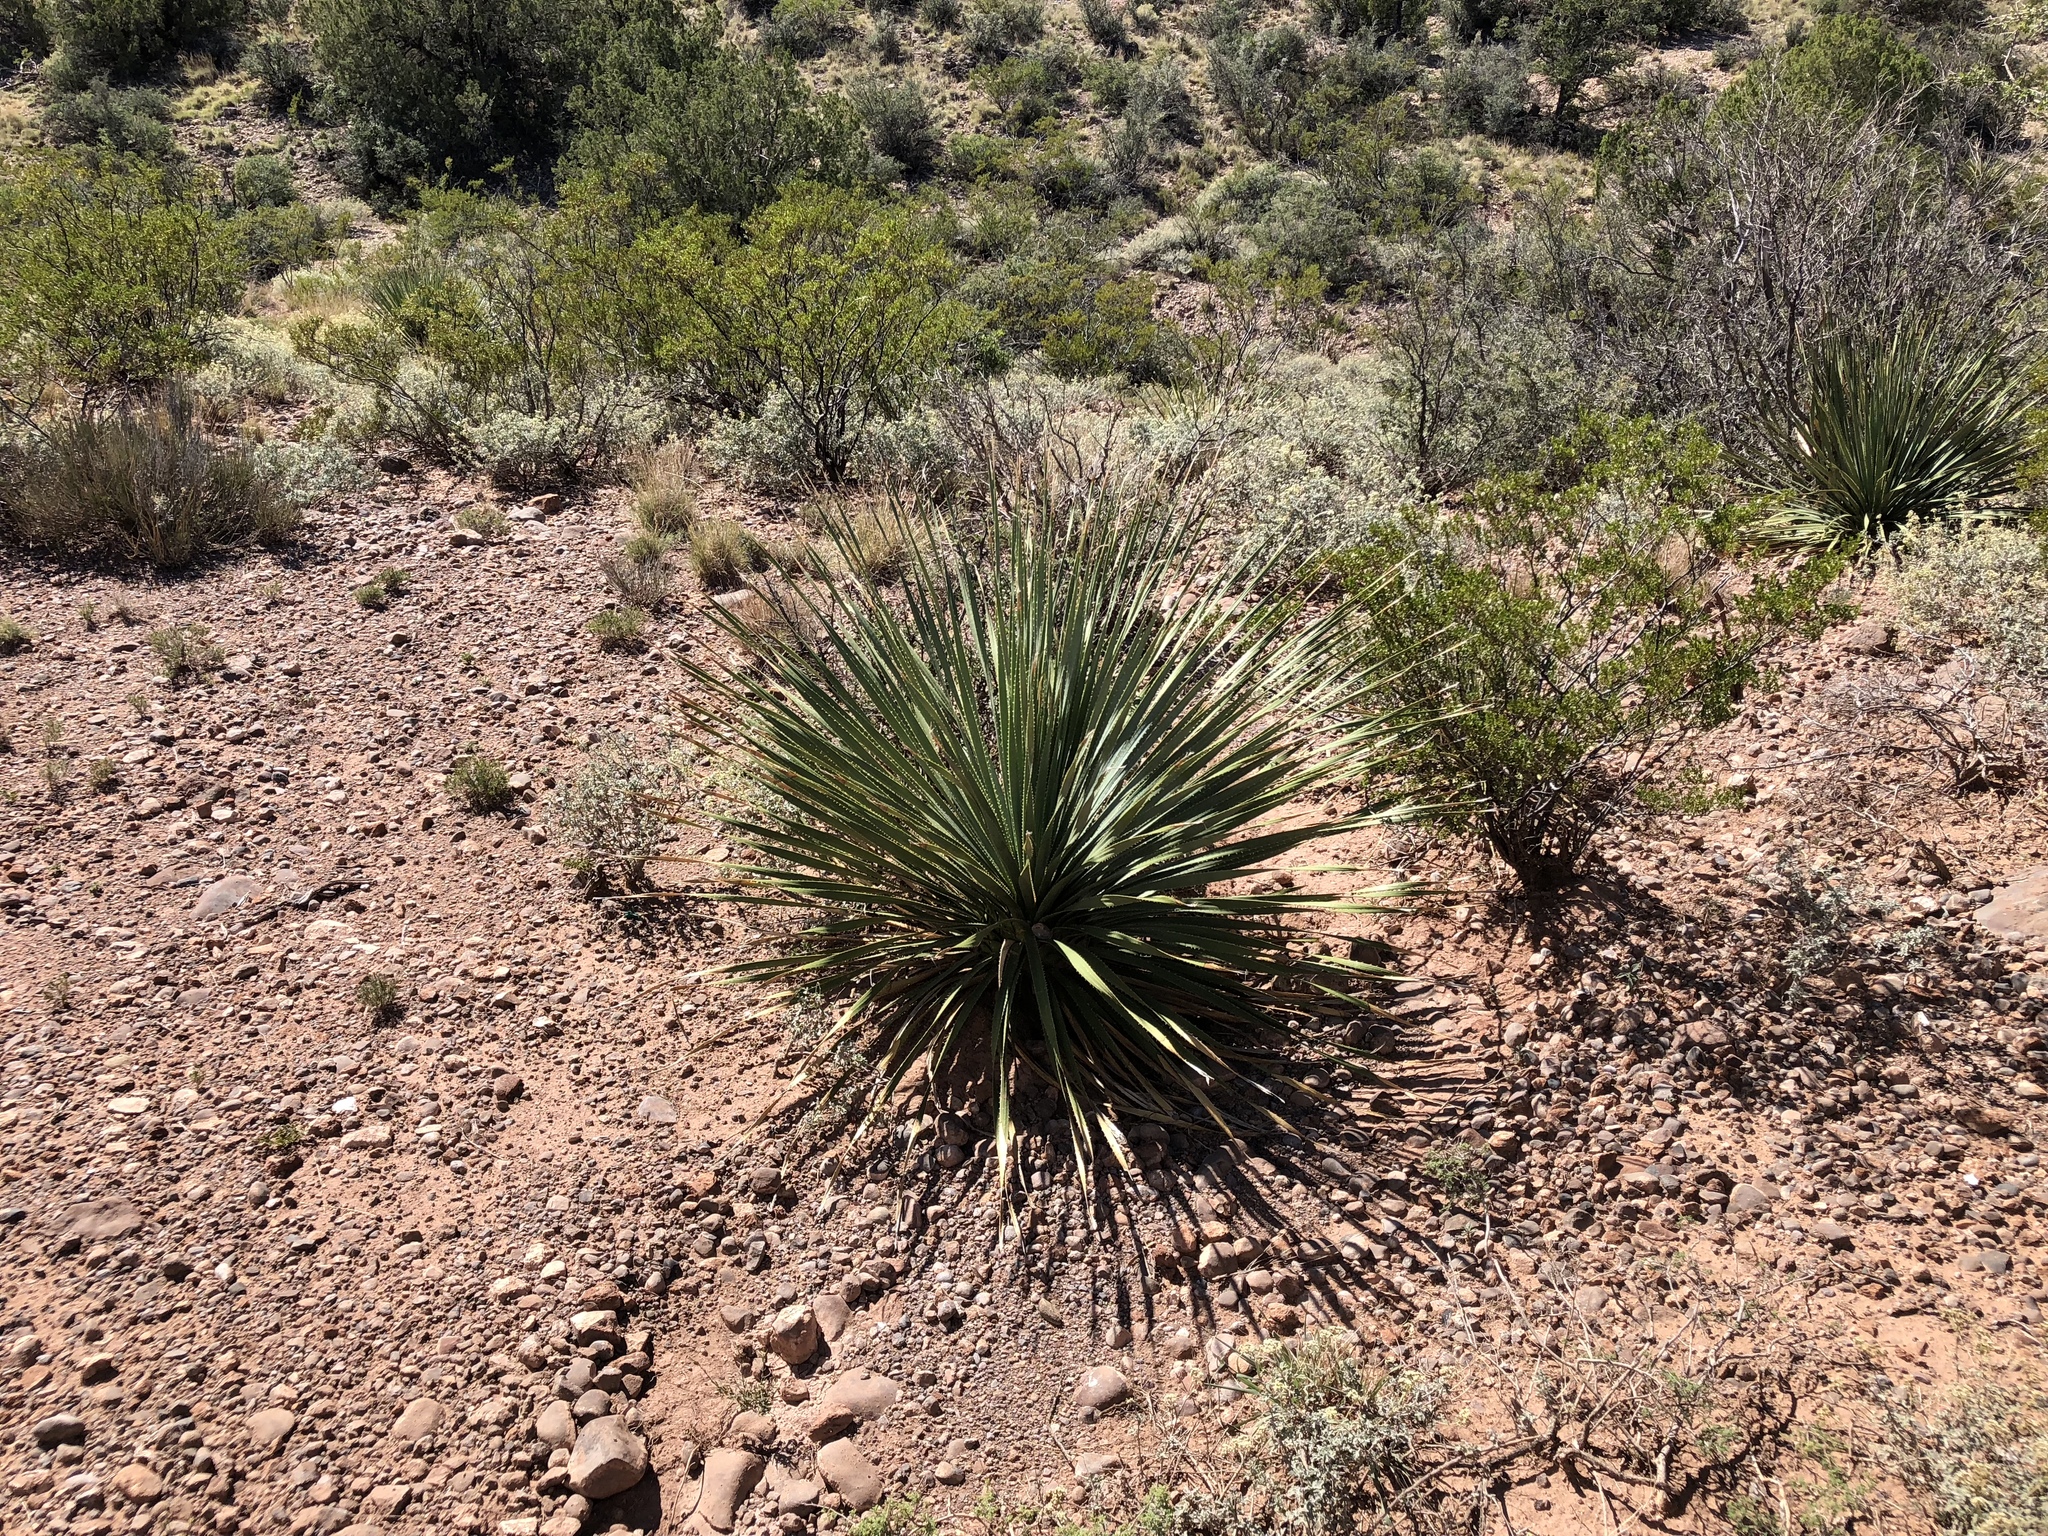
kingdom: Plantae
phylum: Tracheophyta
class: Liliopsida
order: Asparagales
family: Asparagaceae
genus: Dasylirion
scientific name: Dasylirion wheeleri
